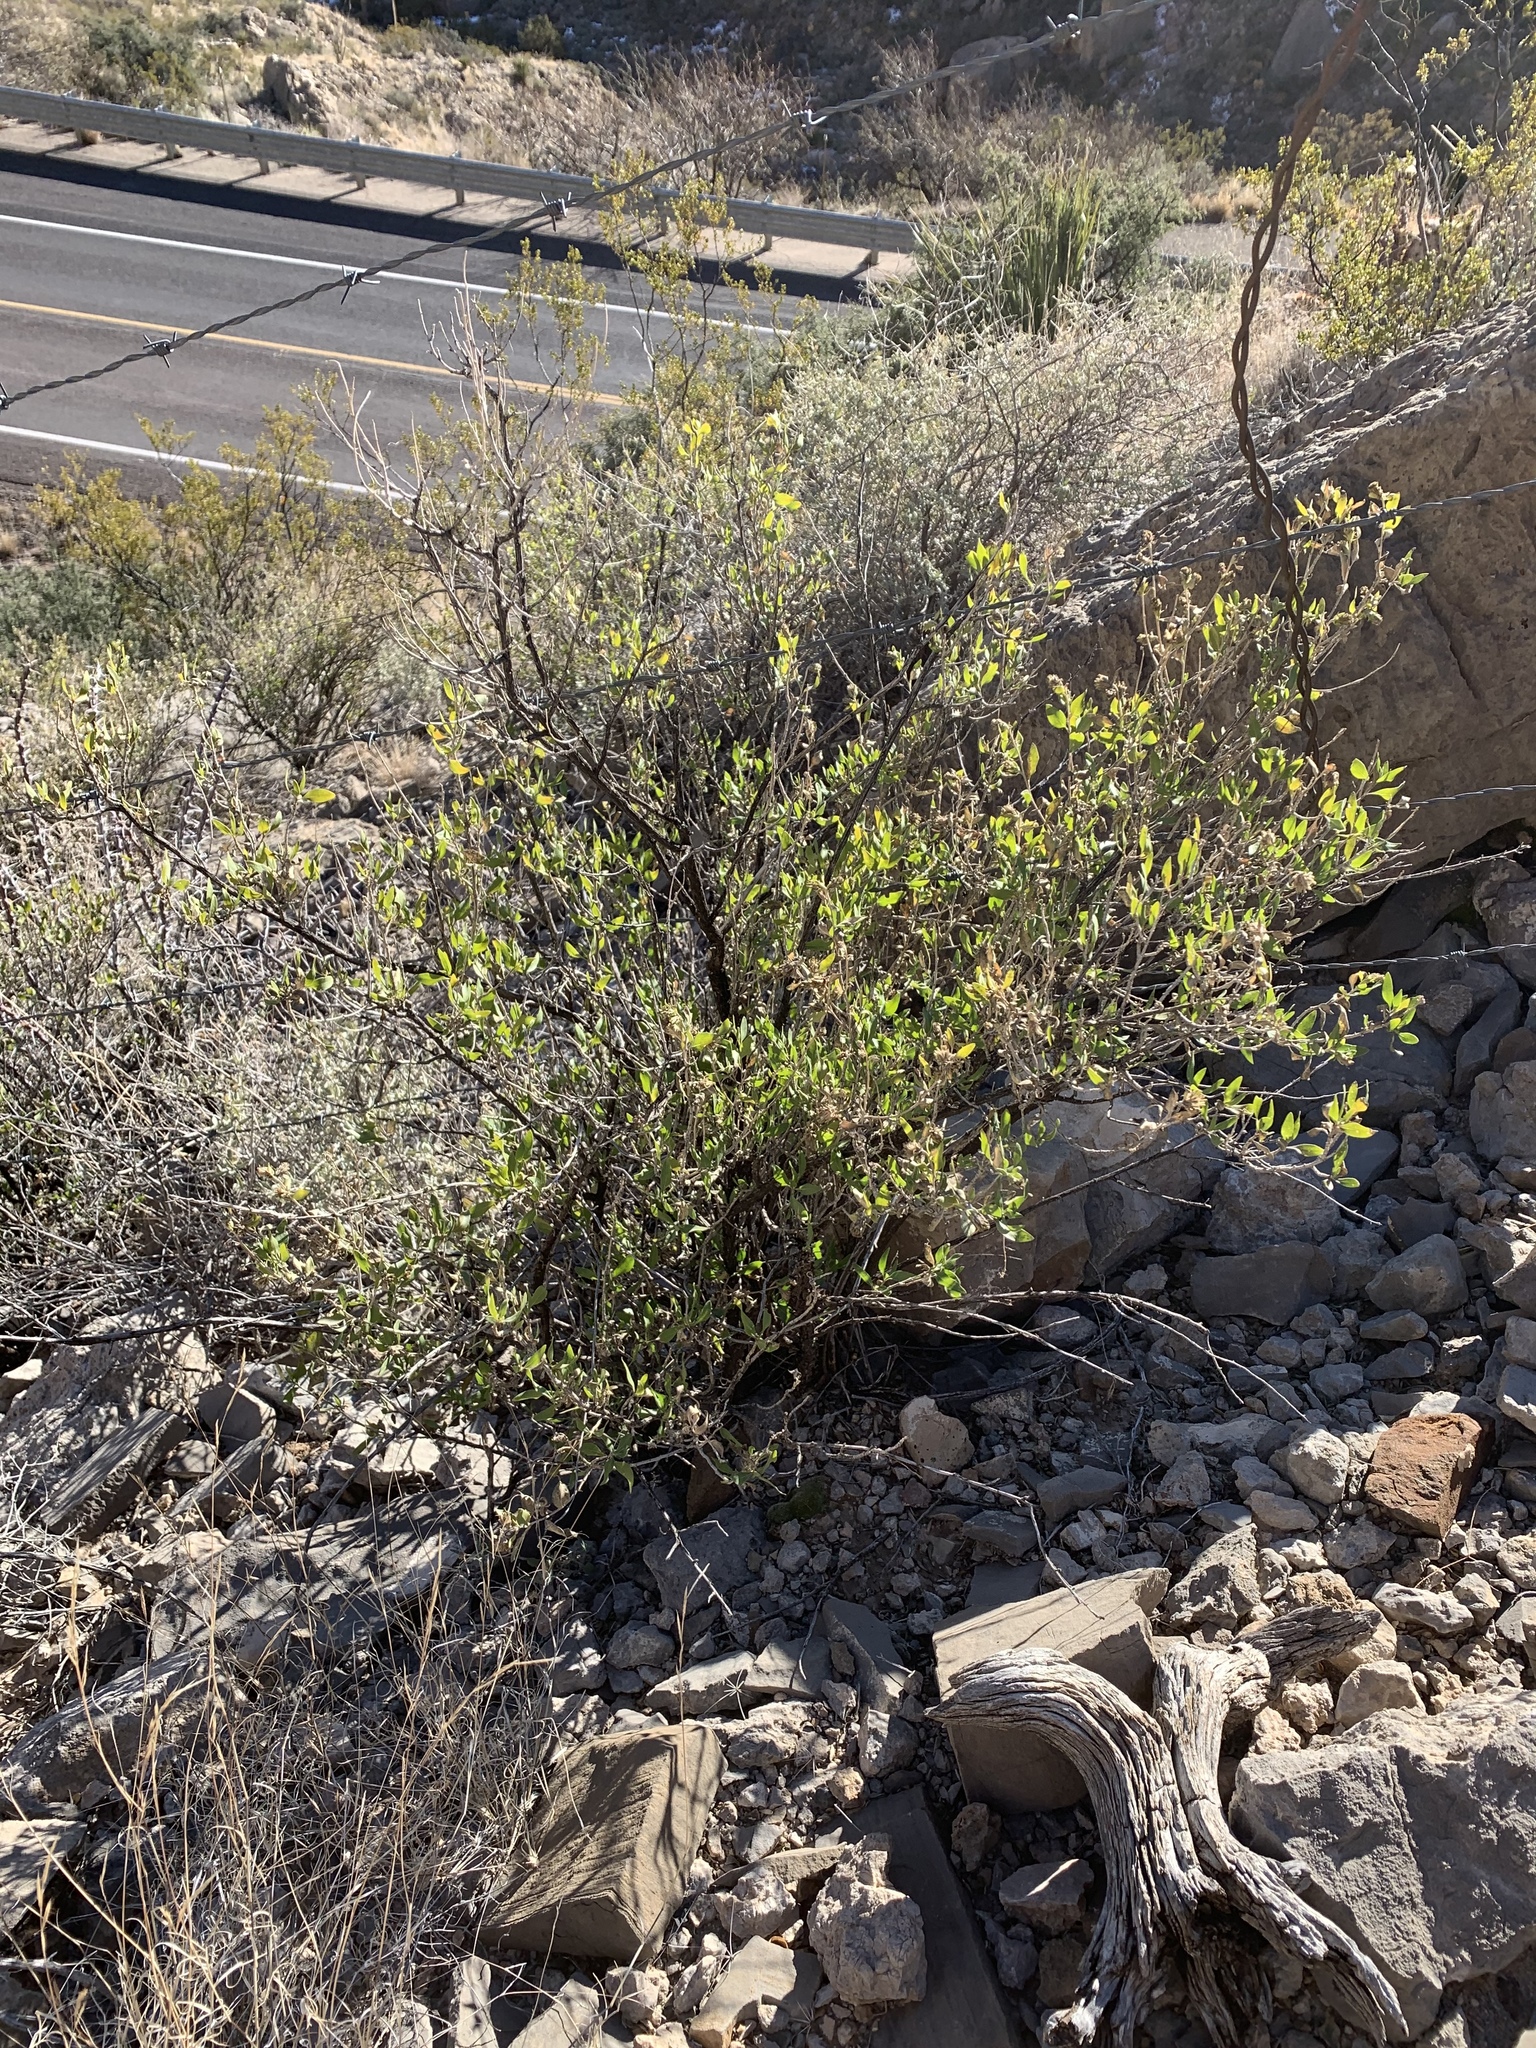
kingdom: Plantae
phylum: Tracheophyta
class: Magnoliopsida
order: Asterales
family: Asteraceae
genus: Flourensia
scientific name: Flourensia cernua
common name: Varnishbush
